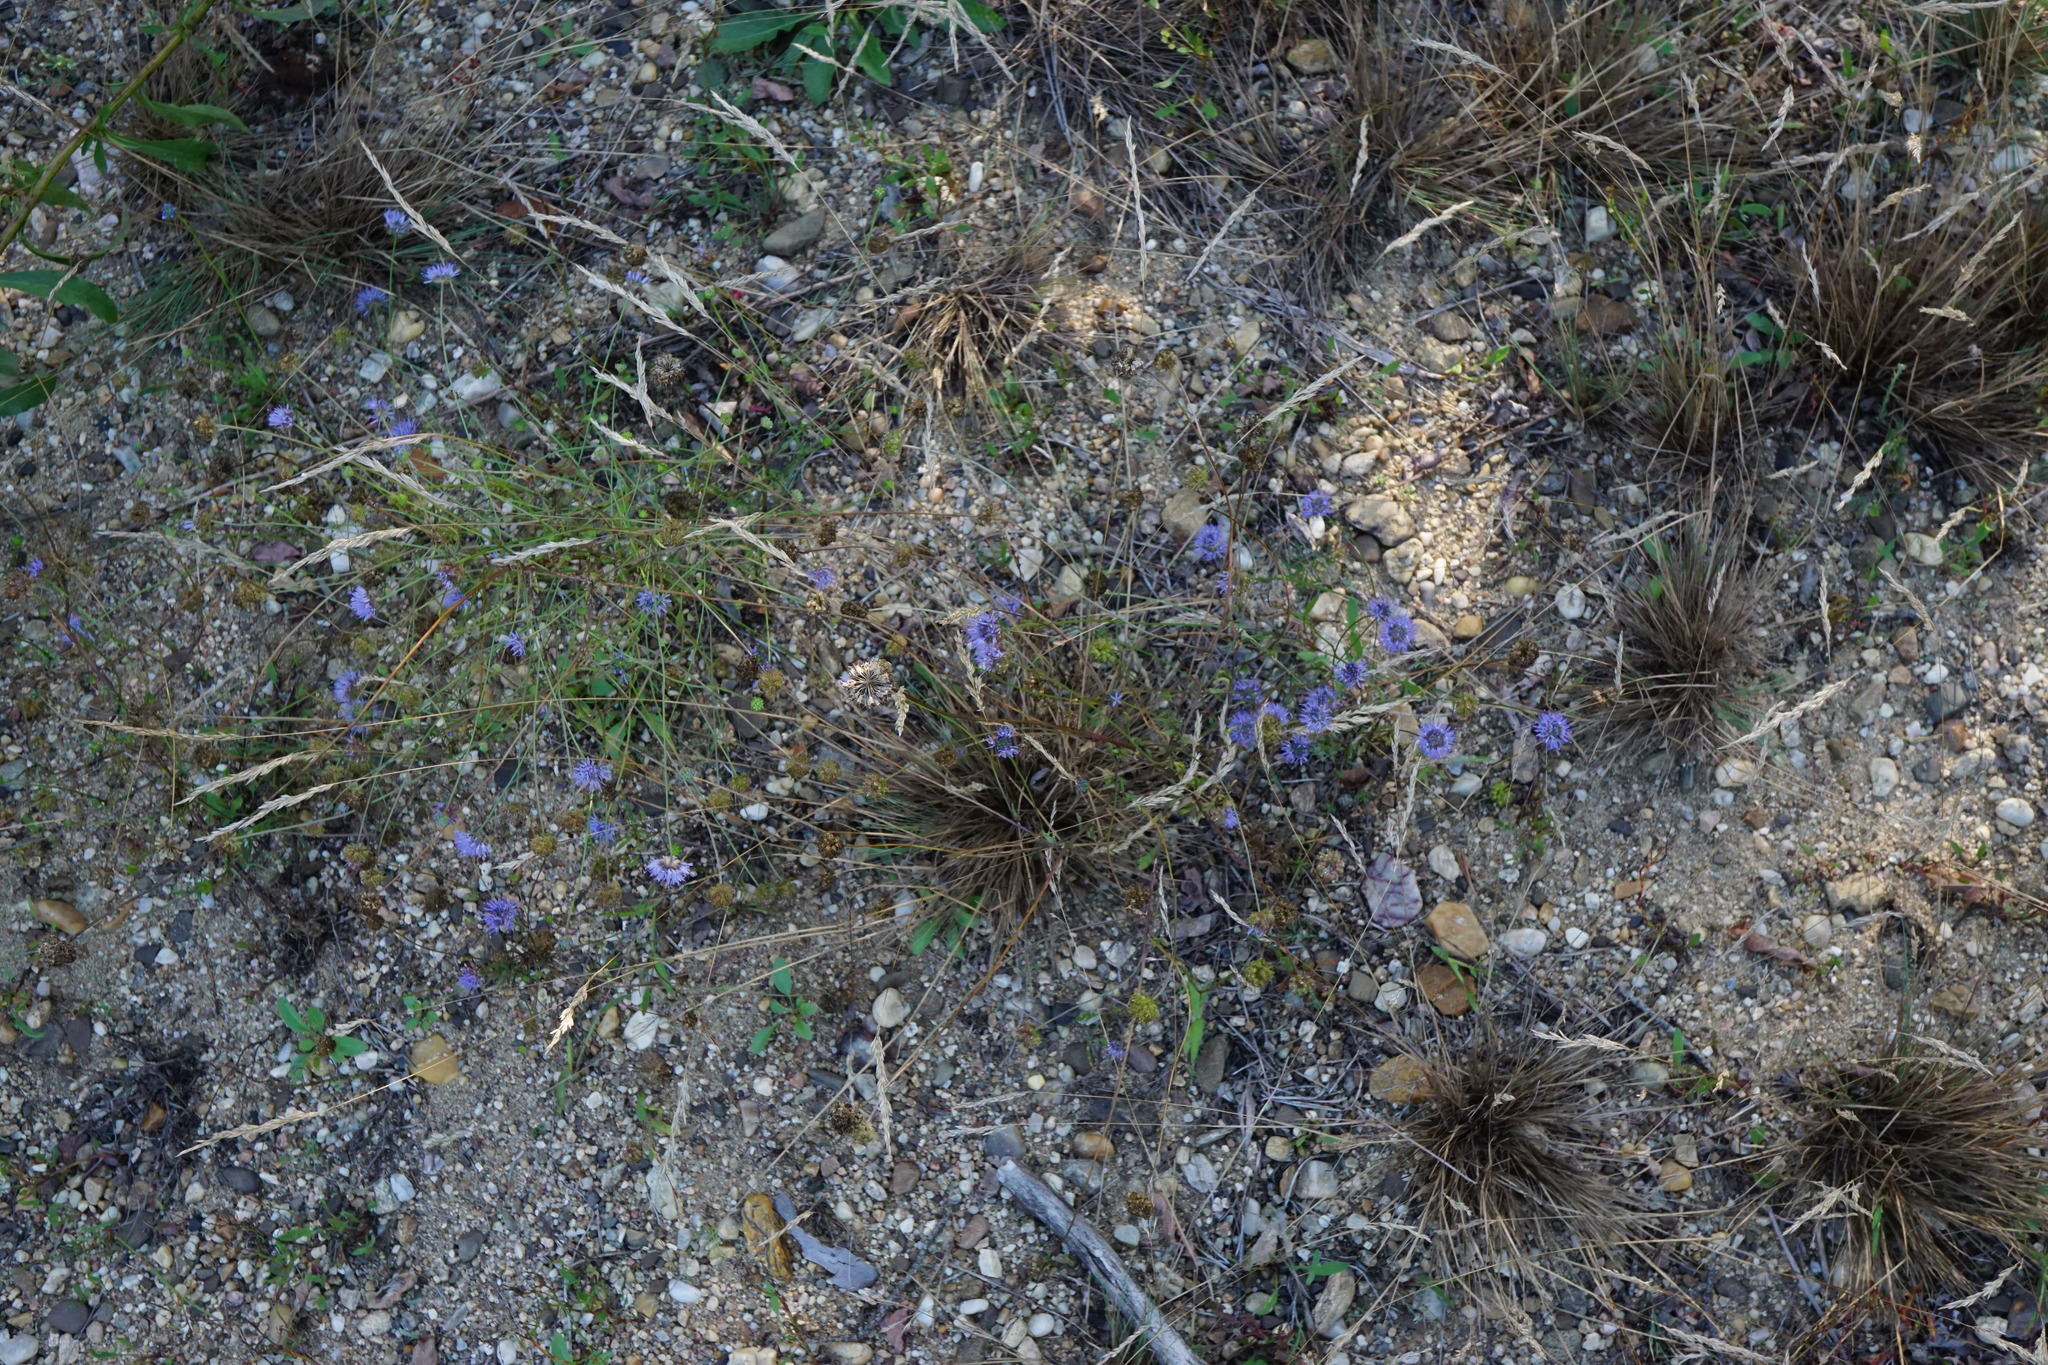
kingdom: Plantae
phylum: Tracheophyta
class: Magnoliopsida
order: Asterales
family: Campanulaceae
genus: Jasione
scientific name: Jasione montana
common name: Sheep's-bit
